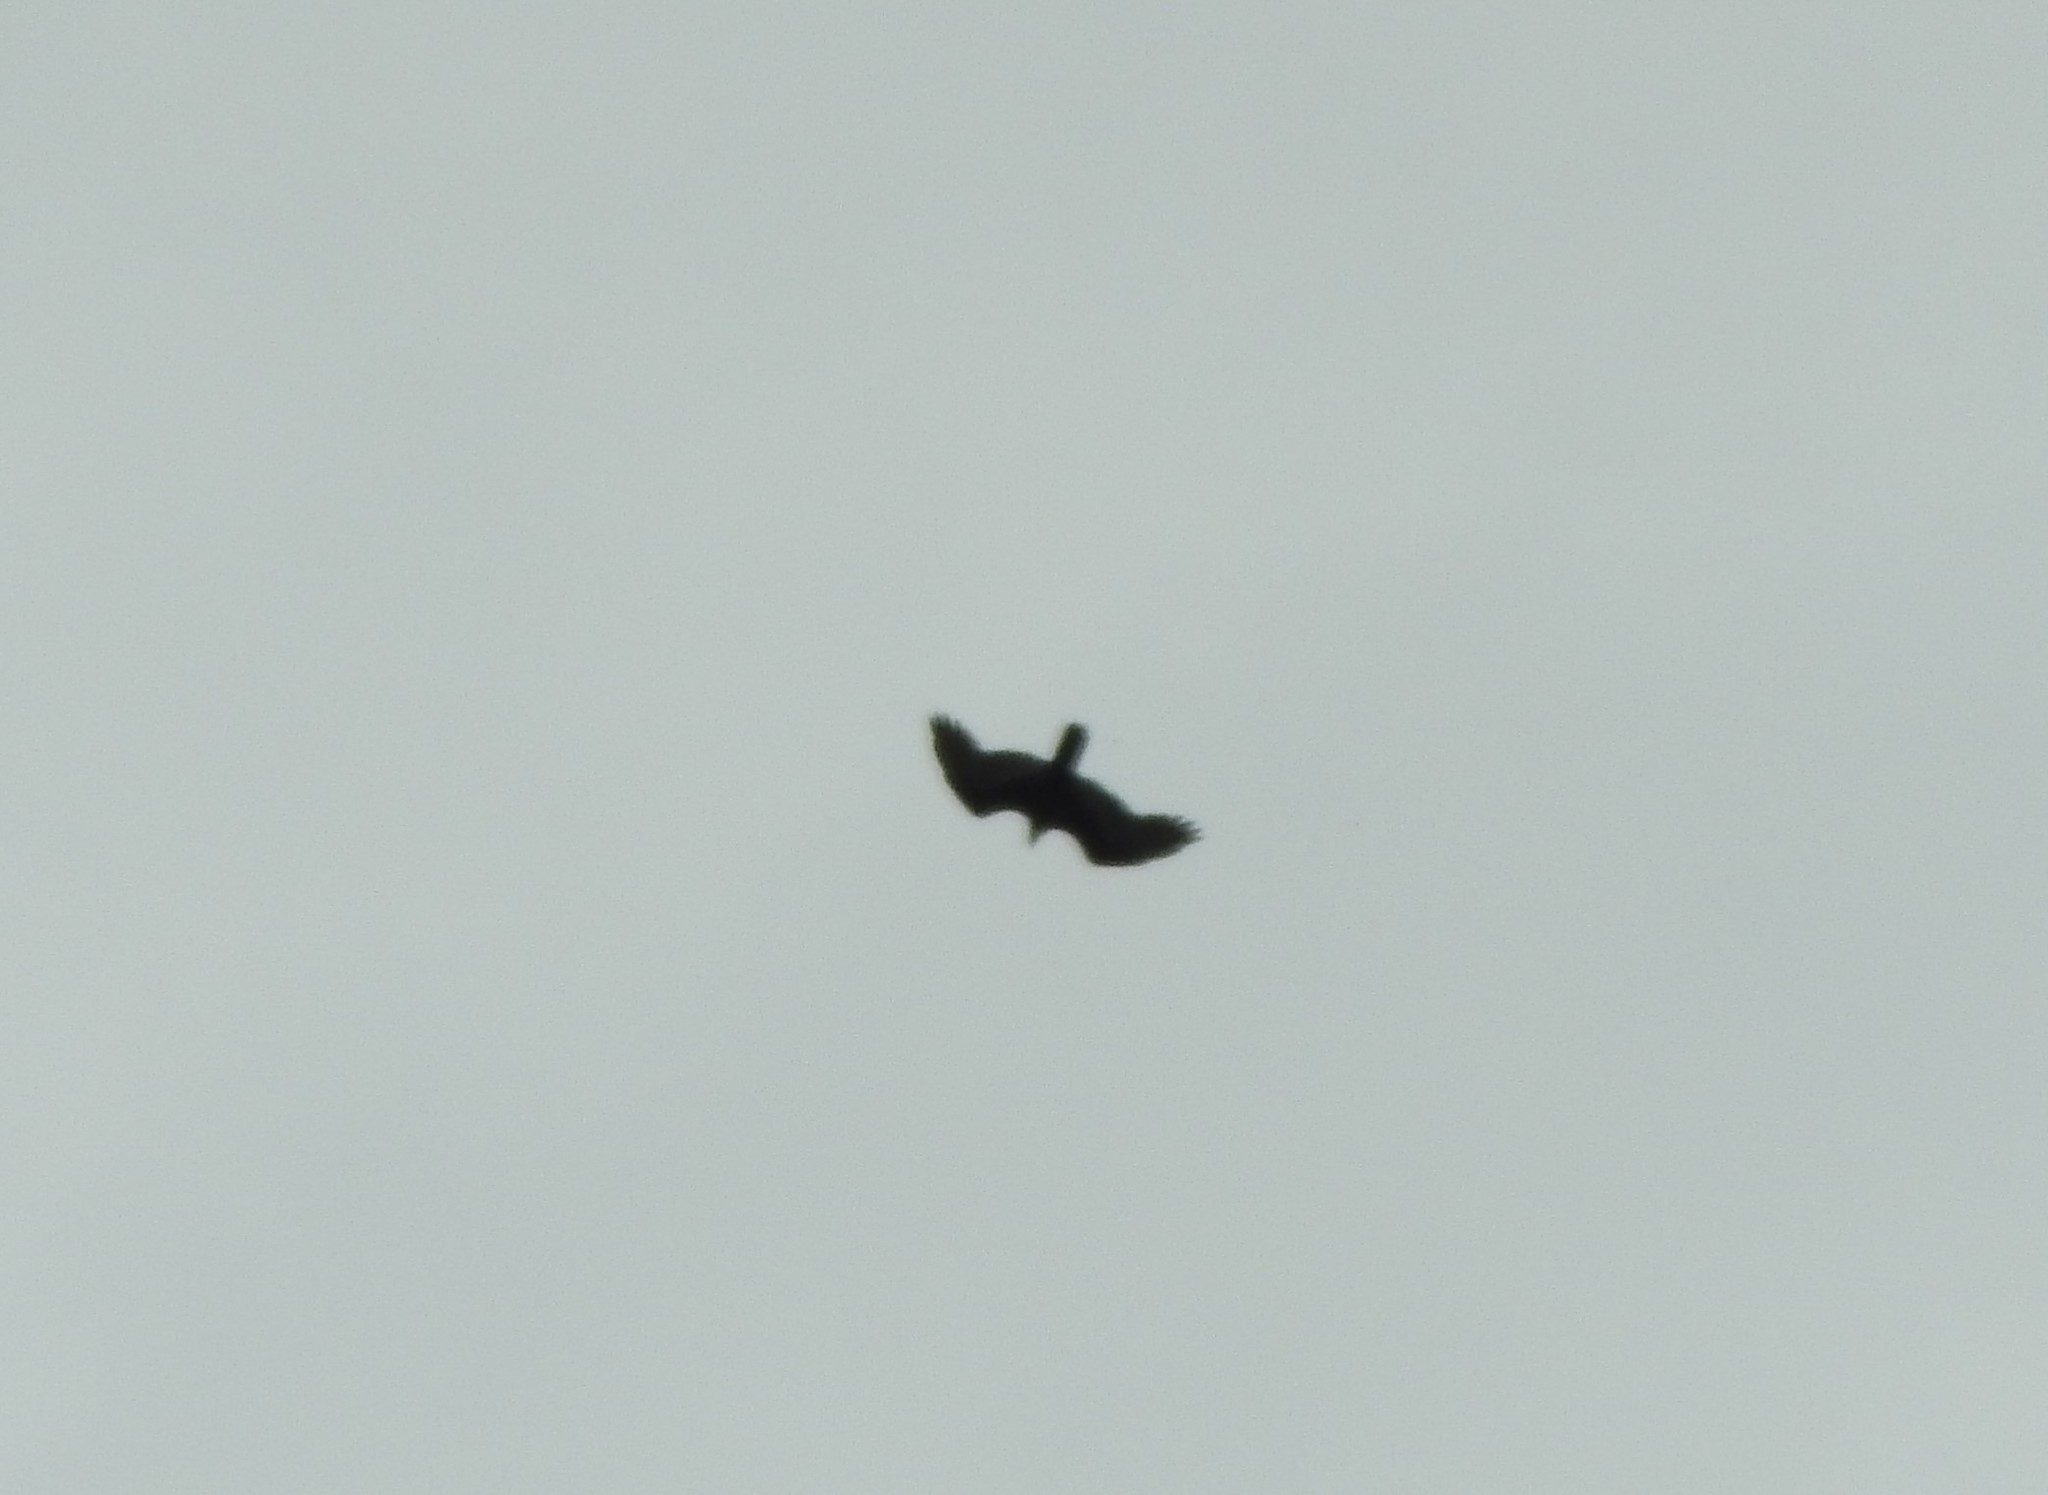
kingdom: Animalia
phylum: Chordata
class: Aves
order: Accipitriformes
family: Cathartidae
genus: Cathartes
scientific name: Cathartes aura
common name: Turkey vulture
